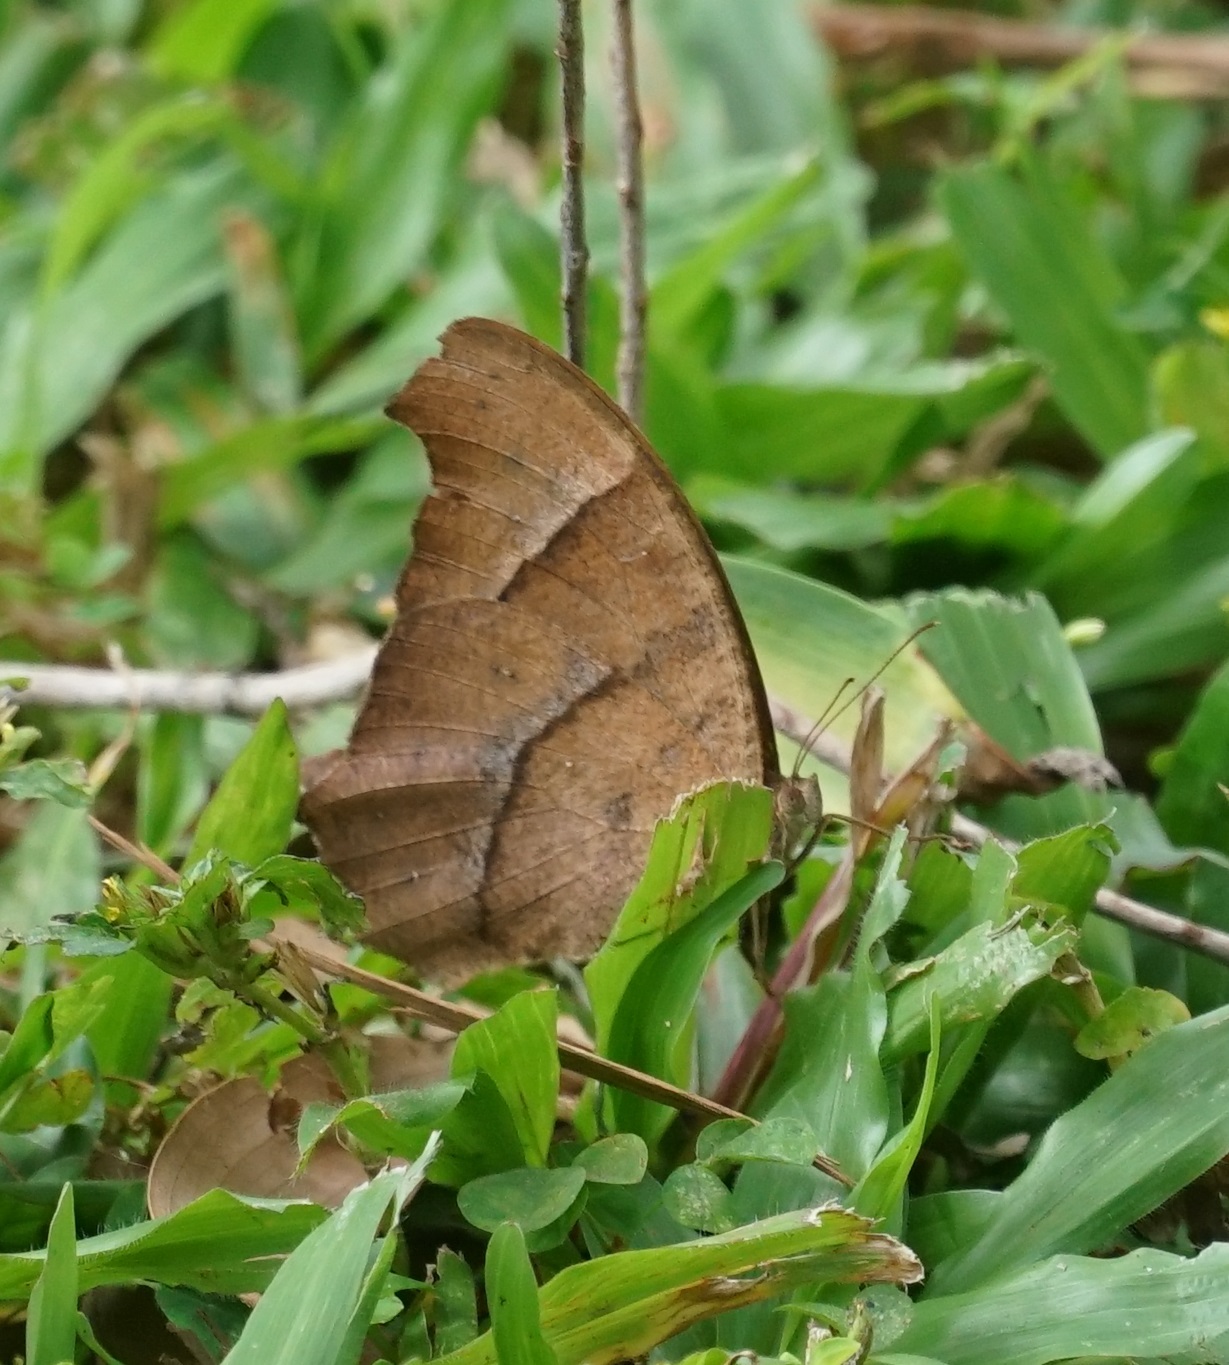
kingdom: Animalia
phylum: Arthropoda
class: Insecta
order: Lepidoptera
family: Nymphalidae
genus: Melanitis
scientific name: Melanitis leda
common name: Twilight brown
